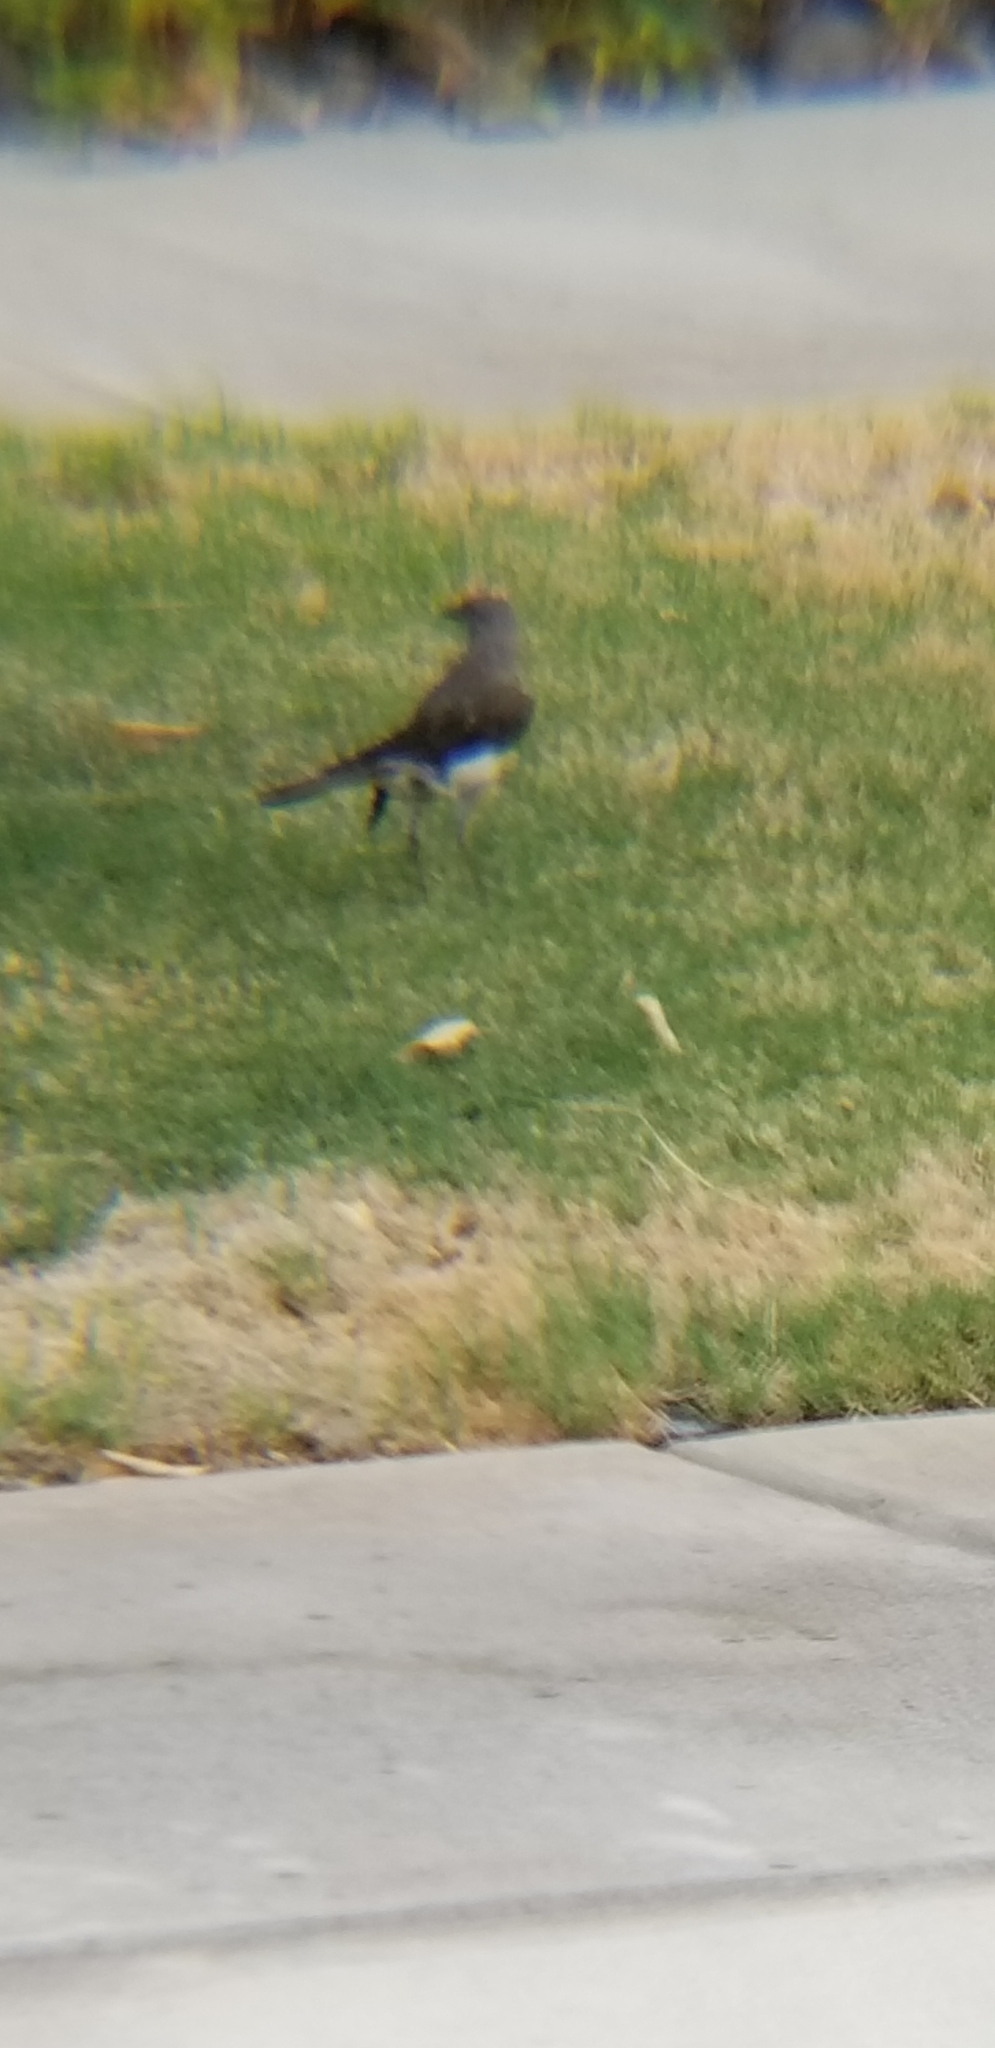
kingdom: Animalia
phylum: Chordata
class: Aves
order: Passeriformes
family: Mimidae
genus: Mimus
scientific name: Mimus polyglottos
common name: Northern mockingbird
